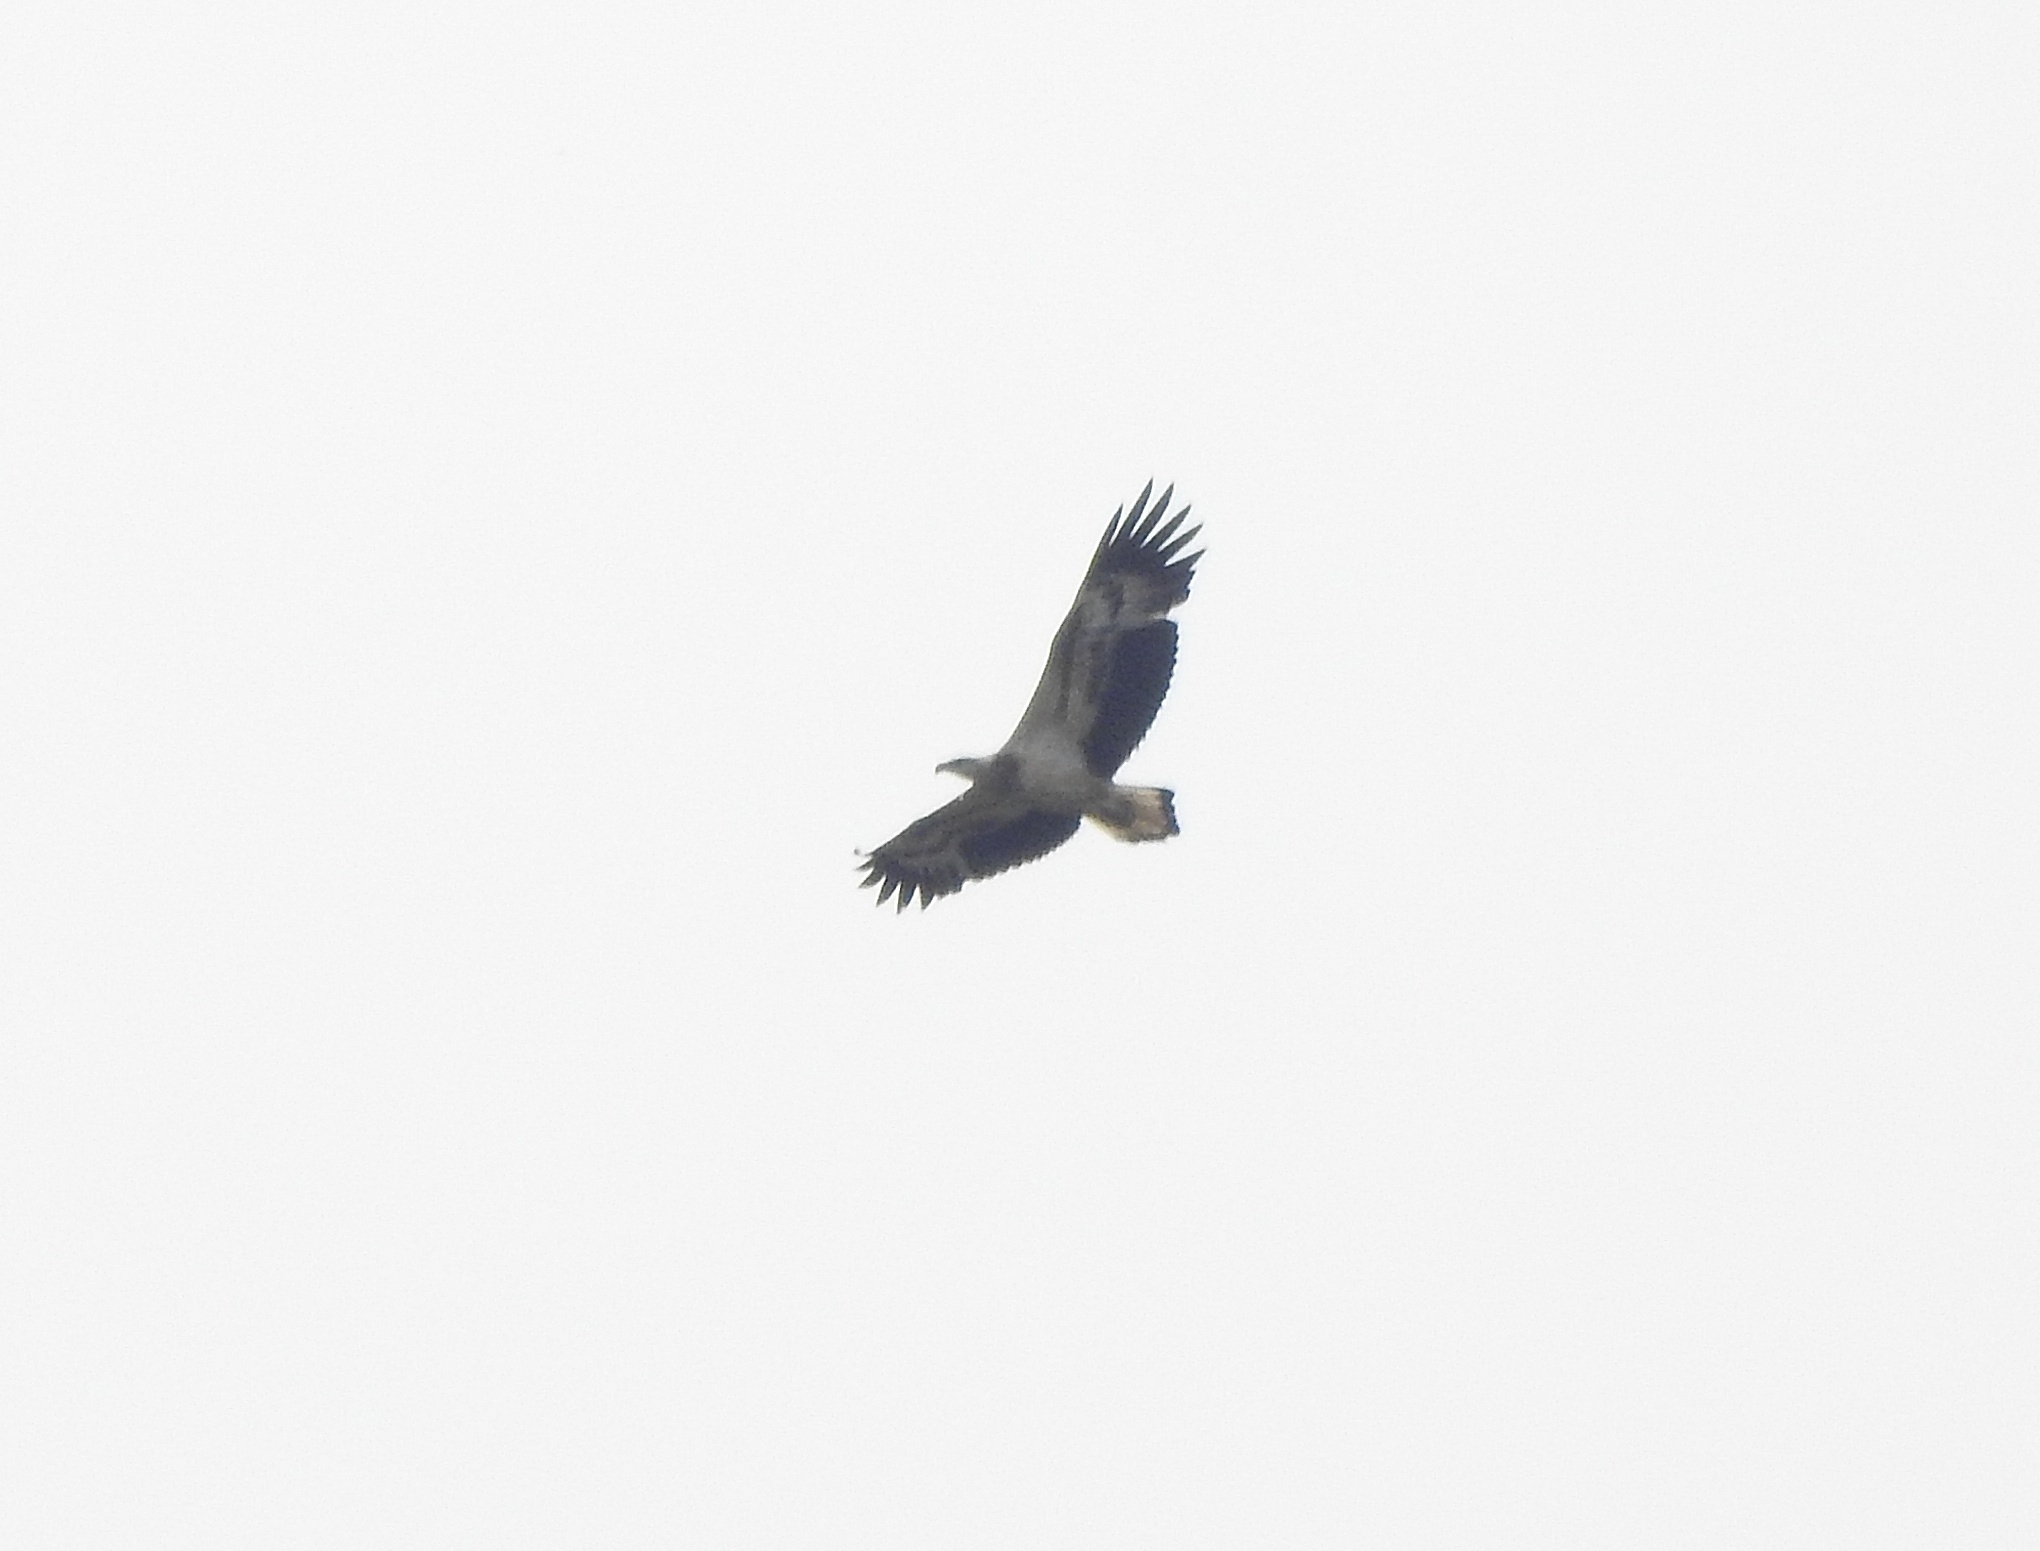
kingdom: Animalia
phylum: Chordata
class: Aves
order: Accipitriformes
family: Accipitridae
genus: Haliaeetus
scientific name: Haliaeetus leucogaster
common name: White-bellied sea eagle
